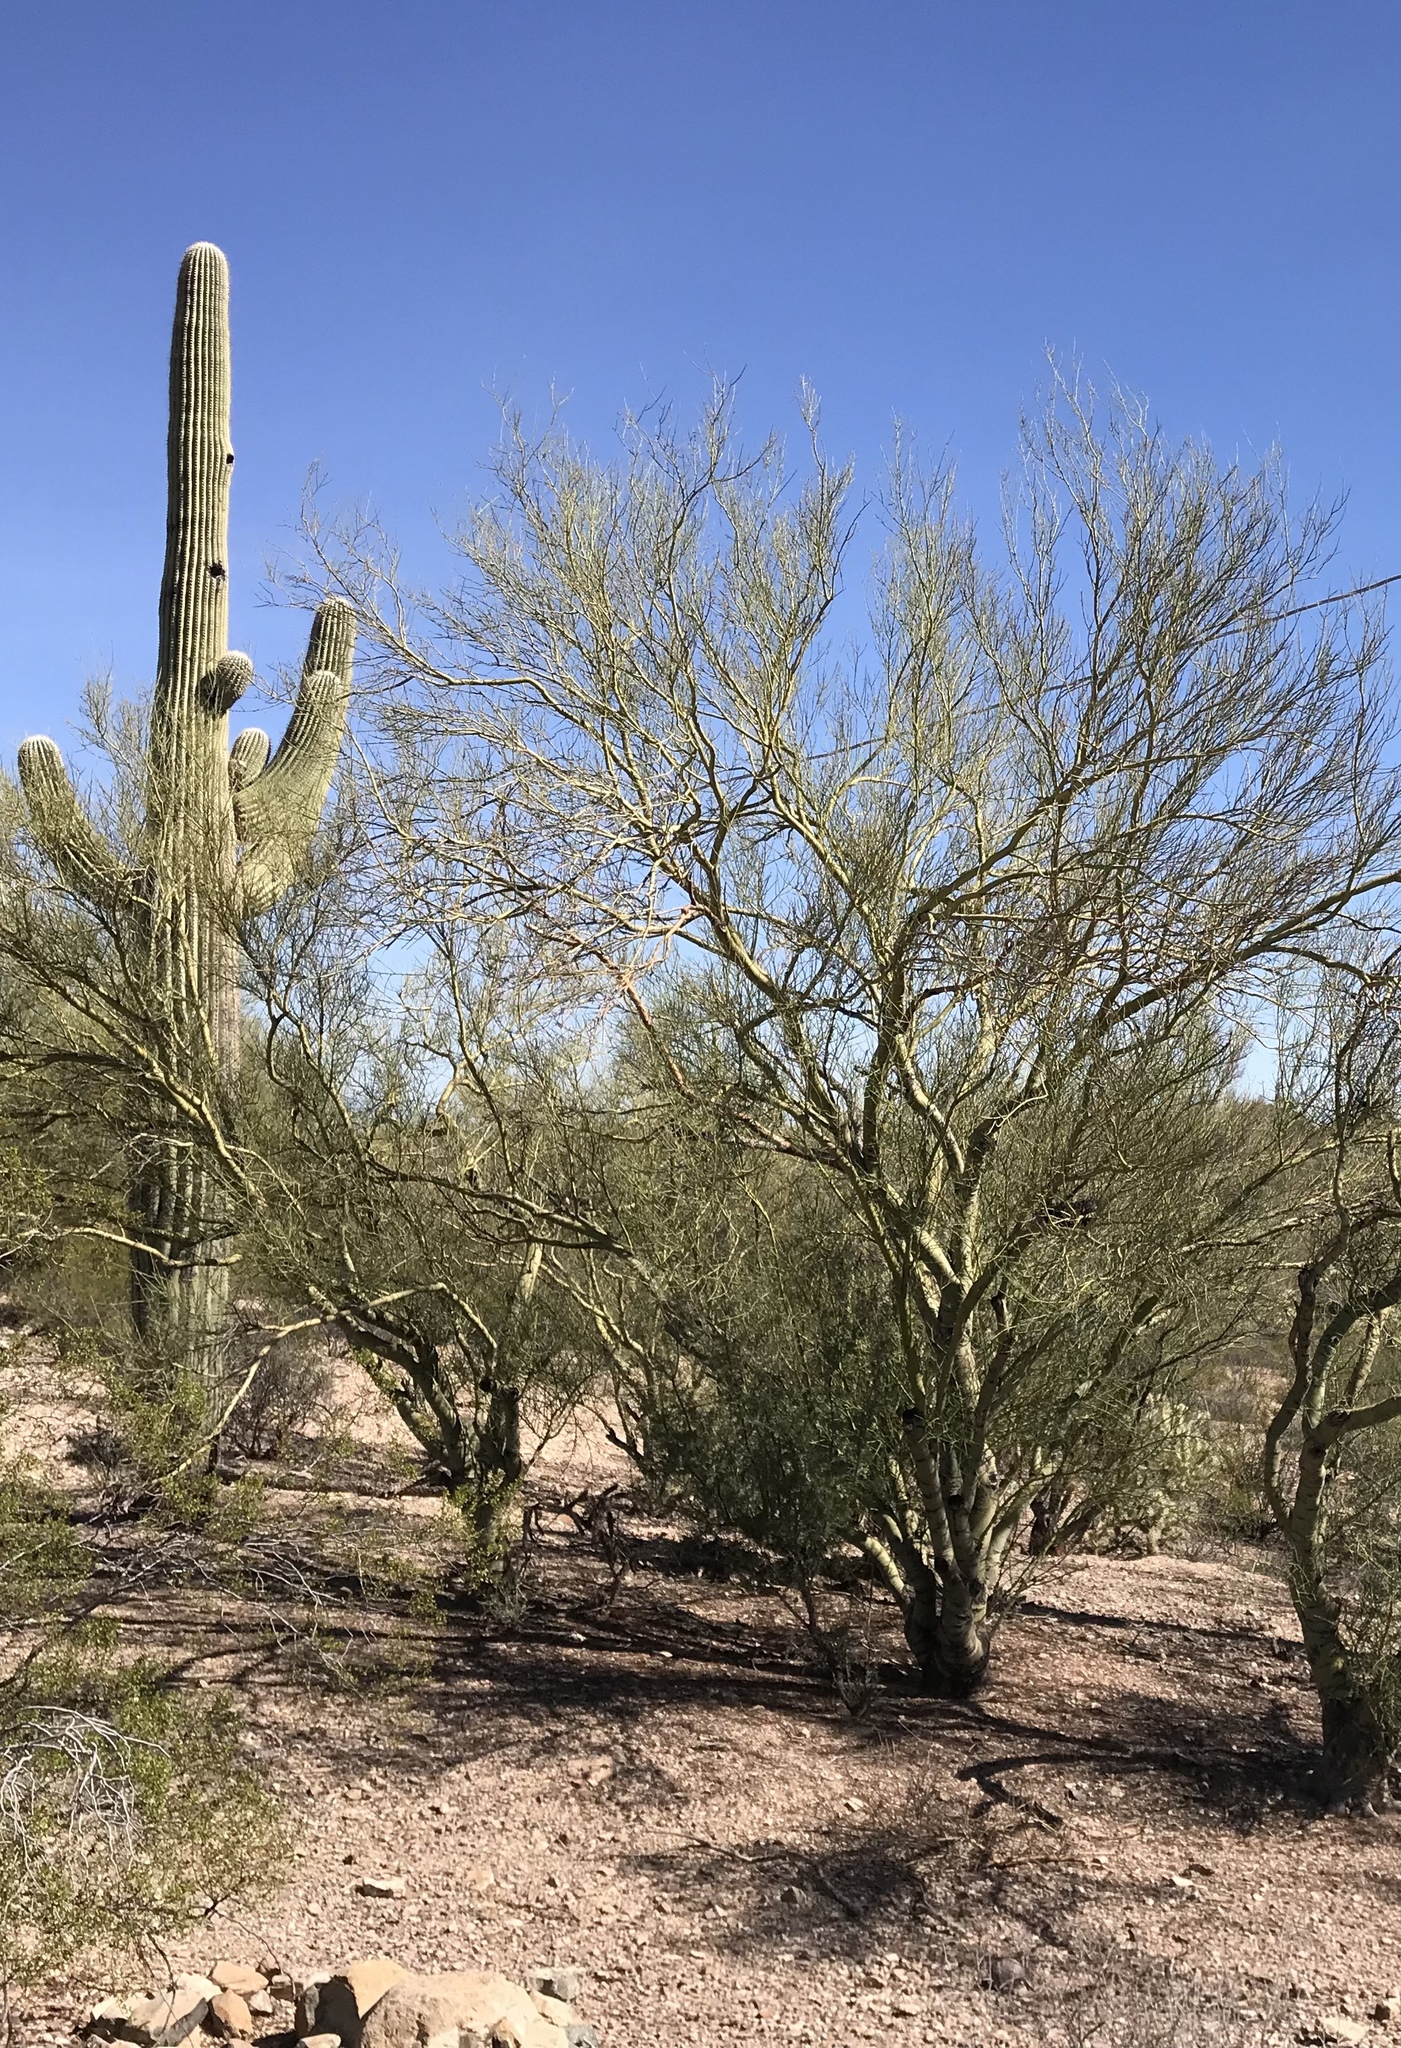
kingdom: Plantae
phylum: Tracheophyta
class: Magnoliopsida
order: Fabales
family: Fabaceae
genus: Parkinsonia
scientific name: Parkinsonia microphylla
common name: Yellow paloverde
